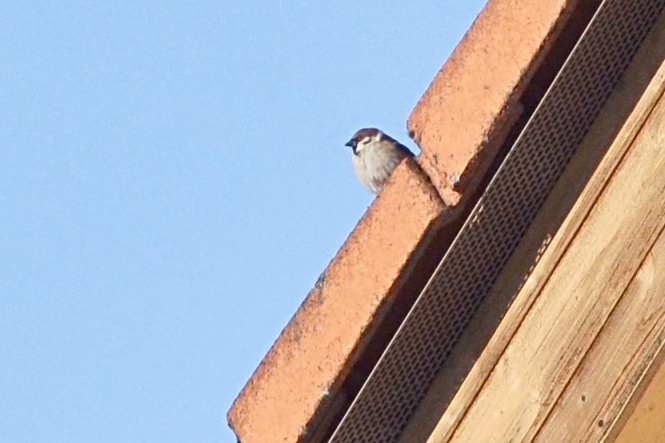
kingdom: Animalia
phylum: Chordata
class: Aves
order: Passeriformes
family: Passeridae
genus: Passer
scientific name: Passer montanus
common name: Eurasian tree sparrow
